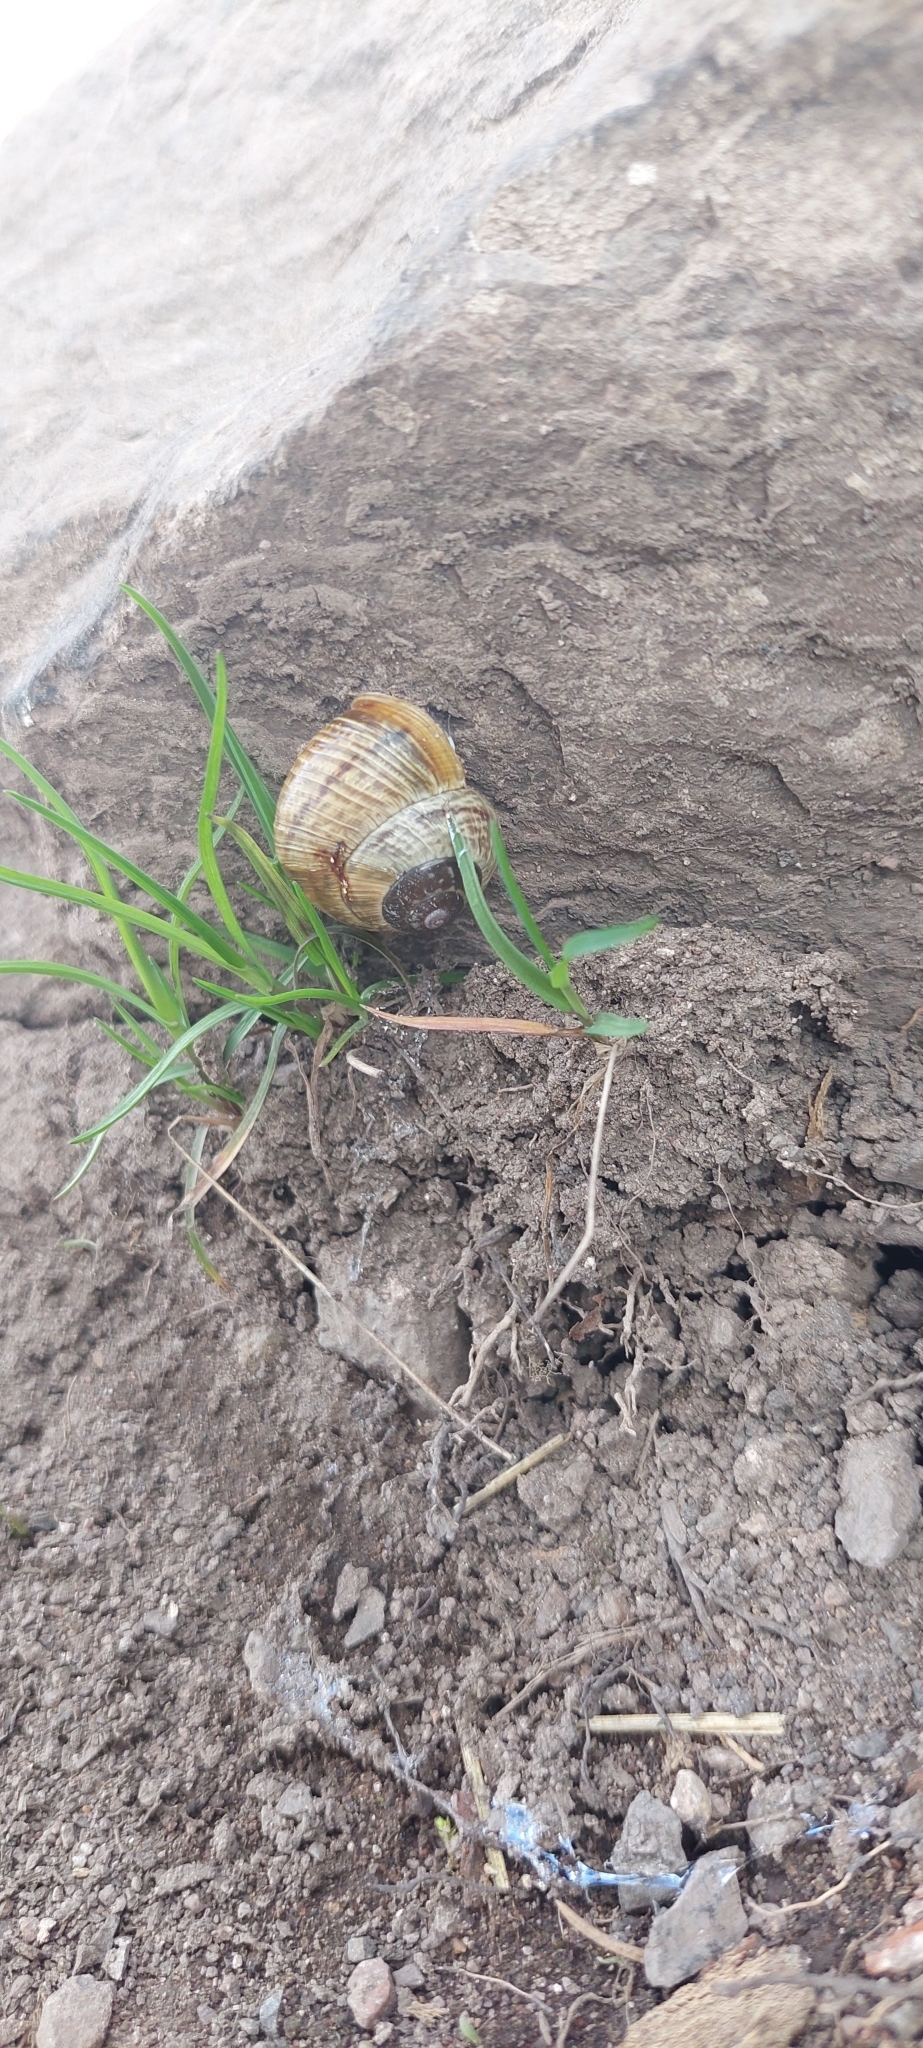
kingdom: Animalia
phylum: Mollusca
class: Gastropoda
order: Stylommatophora
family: Helicidae
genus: Arianta
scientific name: Arianta arbustorum
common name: Copse snail
